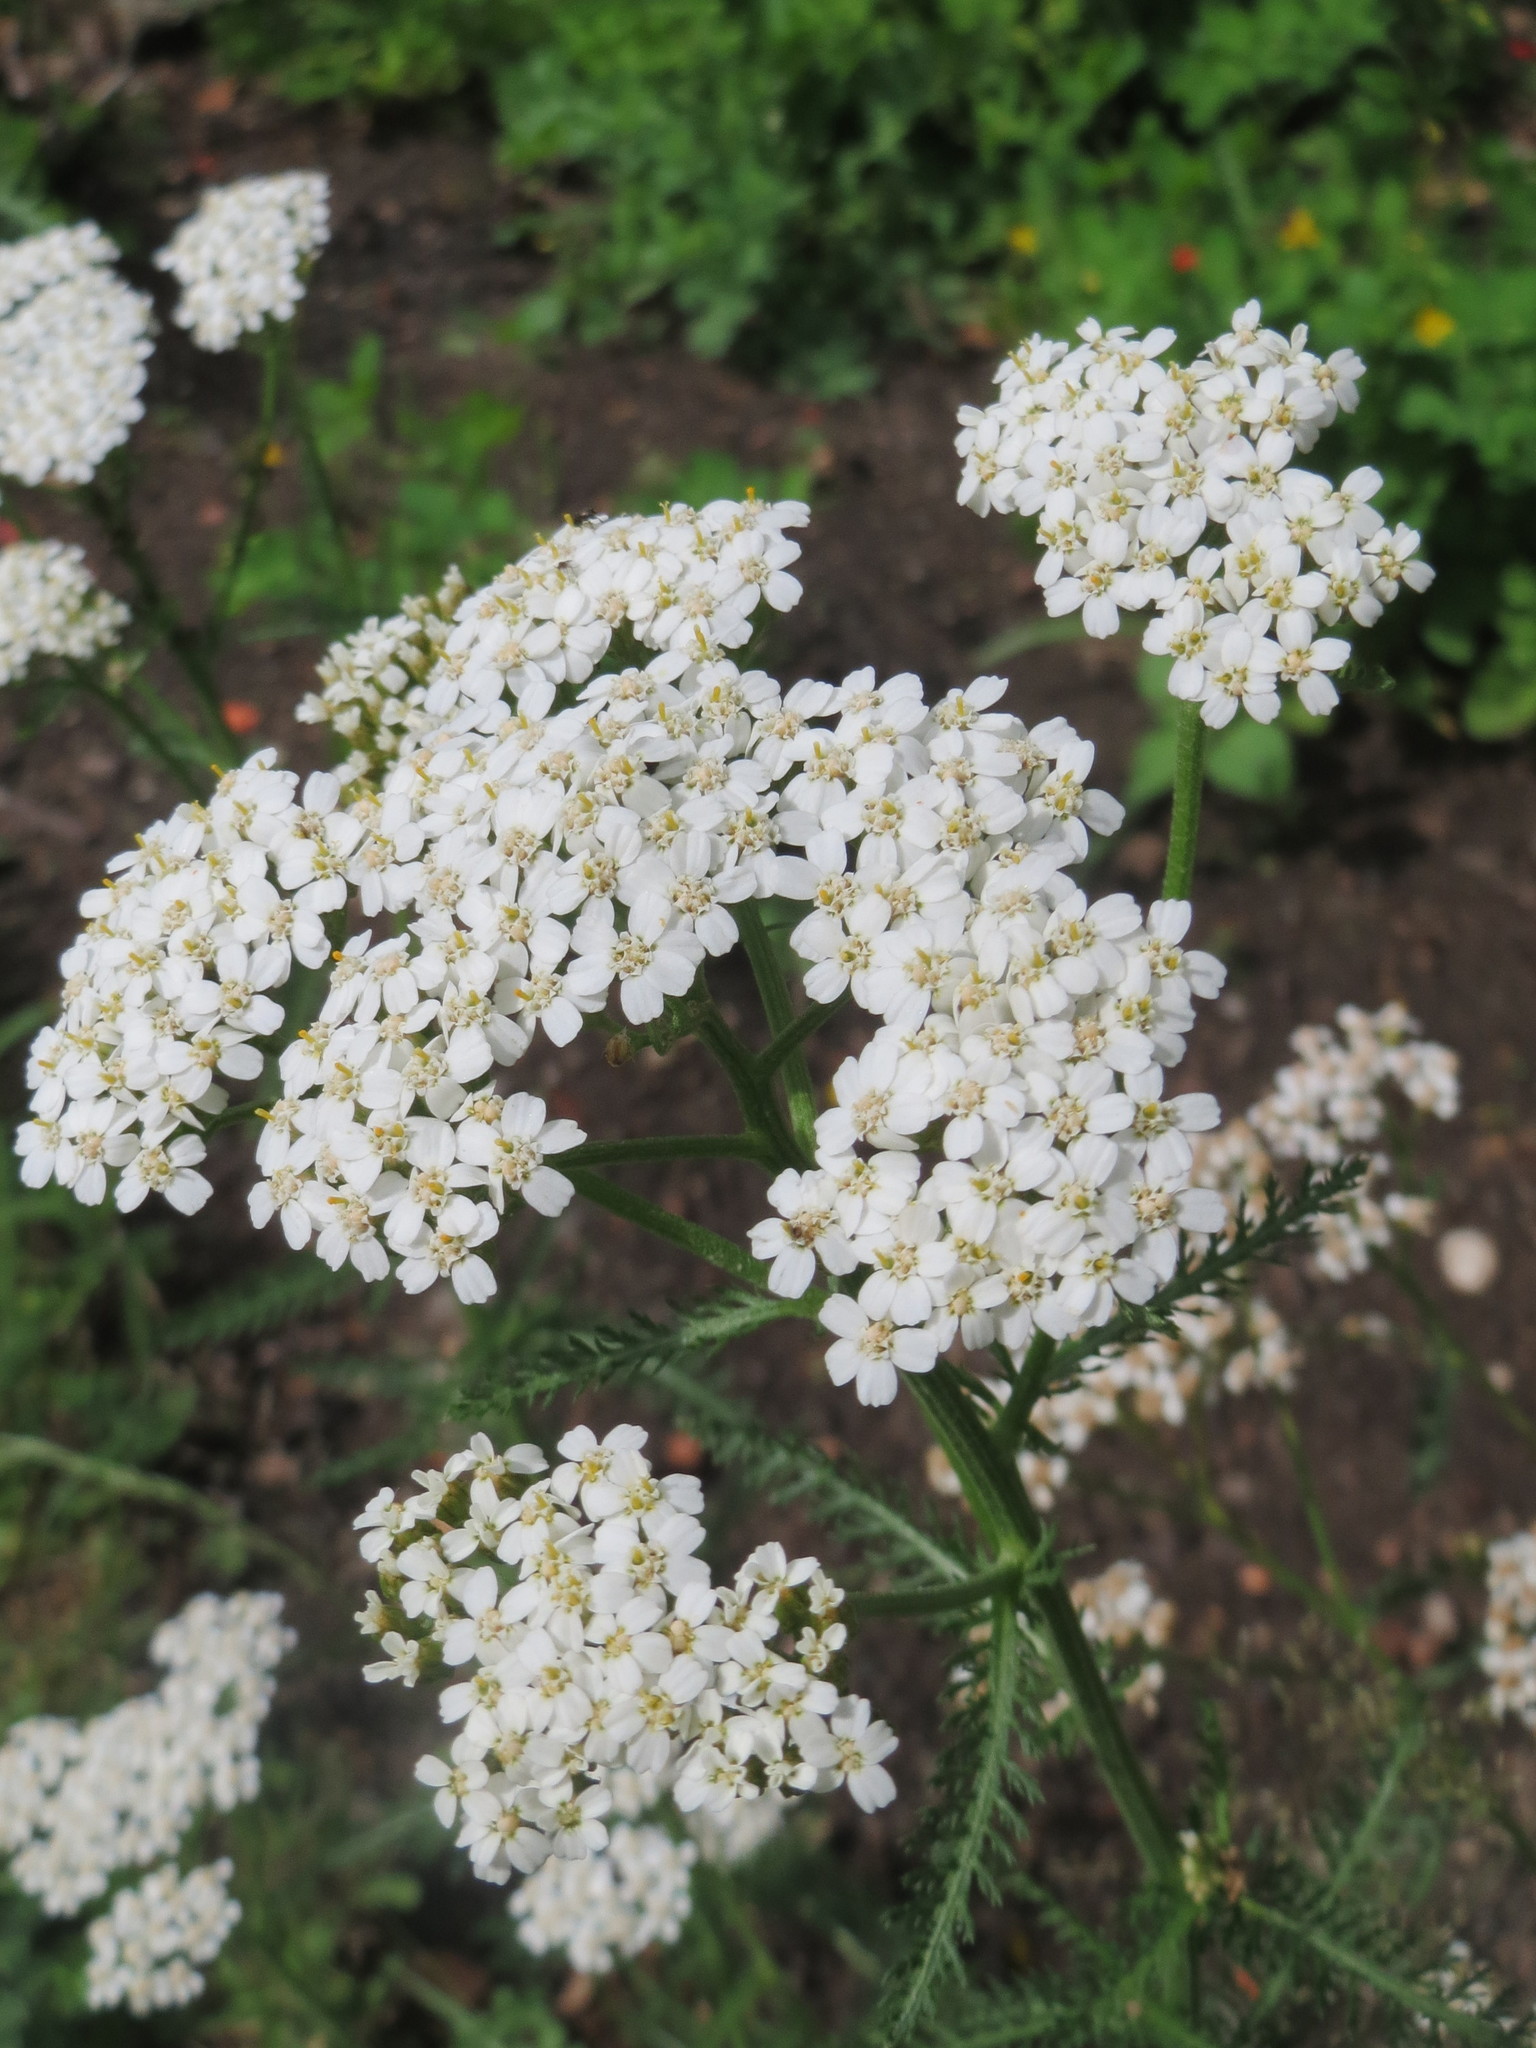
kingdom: Plantae
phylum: Tracheophyta
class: Magnoliopsida
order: Asterales
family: Asteraceae
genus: Achillea
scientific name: Achillea millefolium
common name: Yarrow
